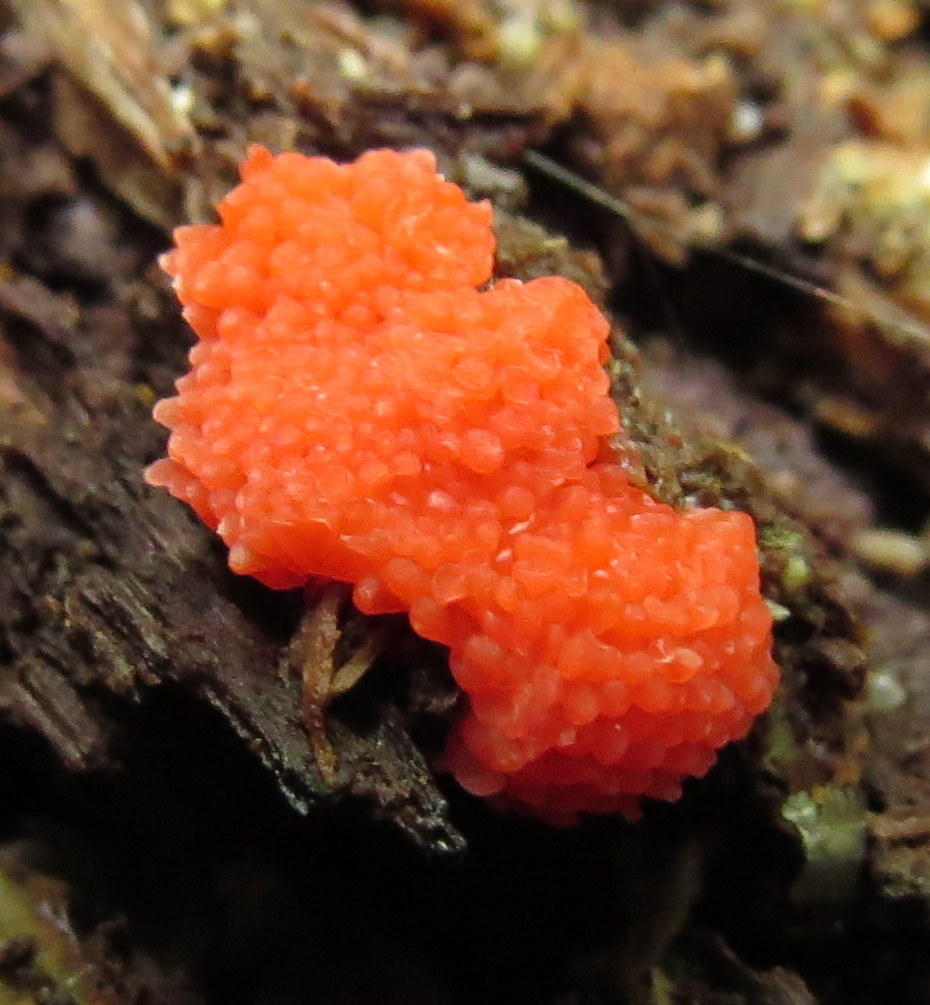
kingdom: Protozoa
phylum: Mycetozoa
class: Myxomycetes
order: Cribrariales
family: Tubiferaceae
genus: Tubifera
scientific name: Tubifera ferruginosa
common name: Red raspberry slime mold
